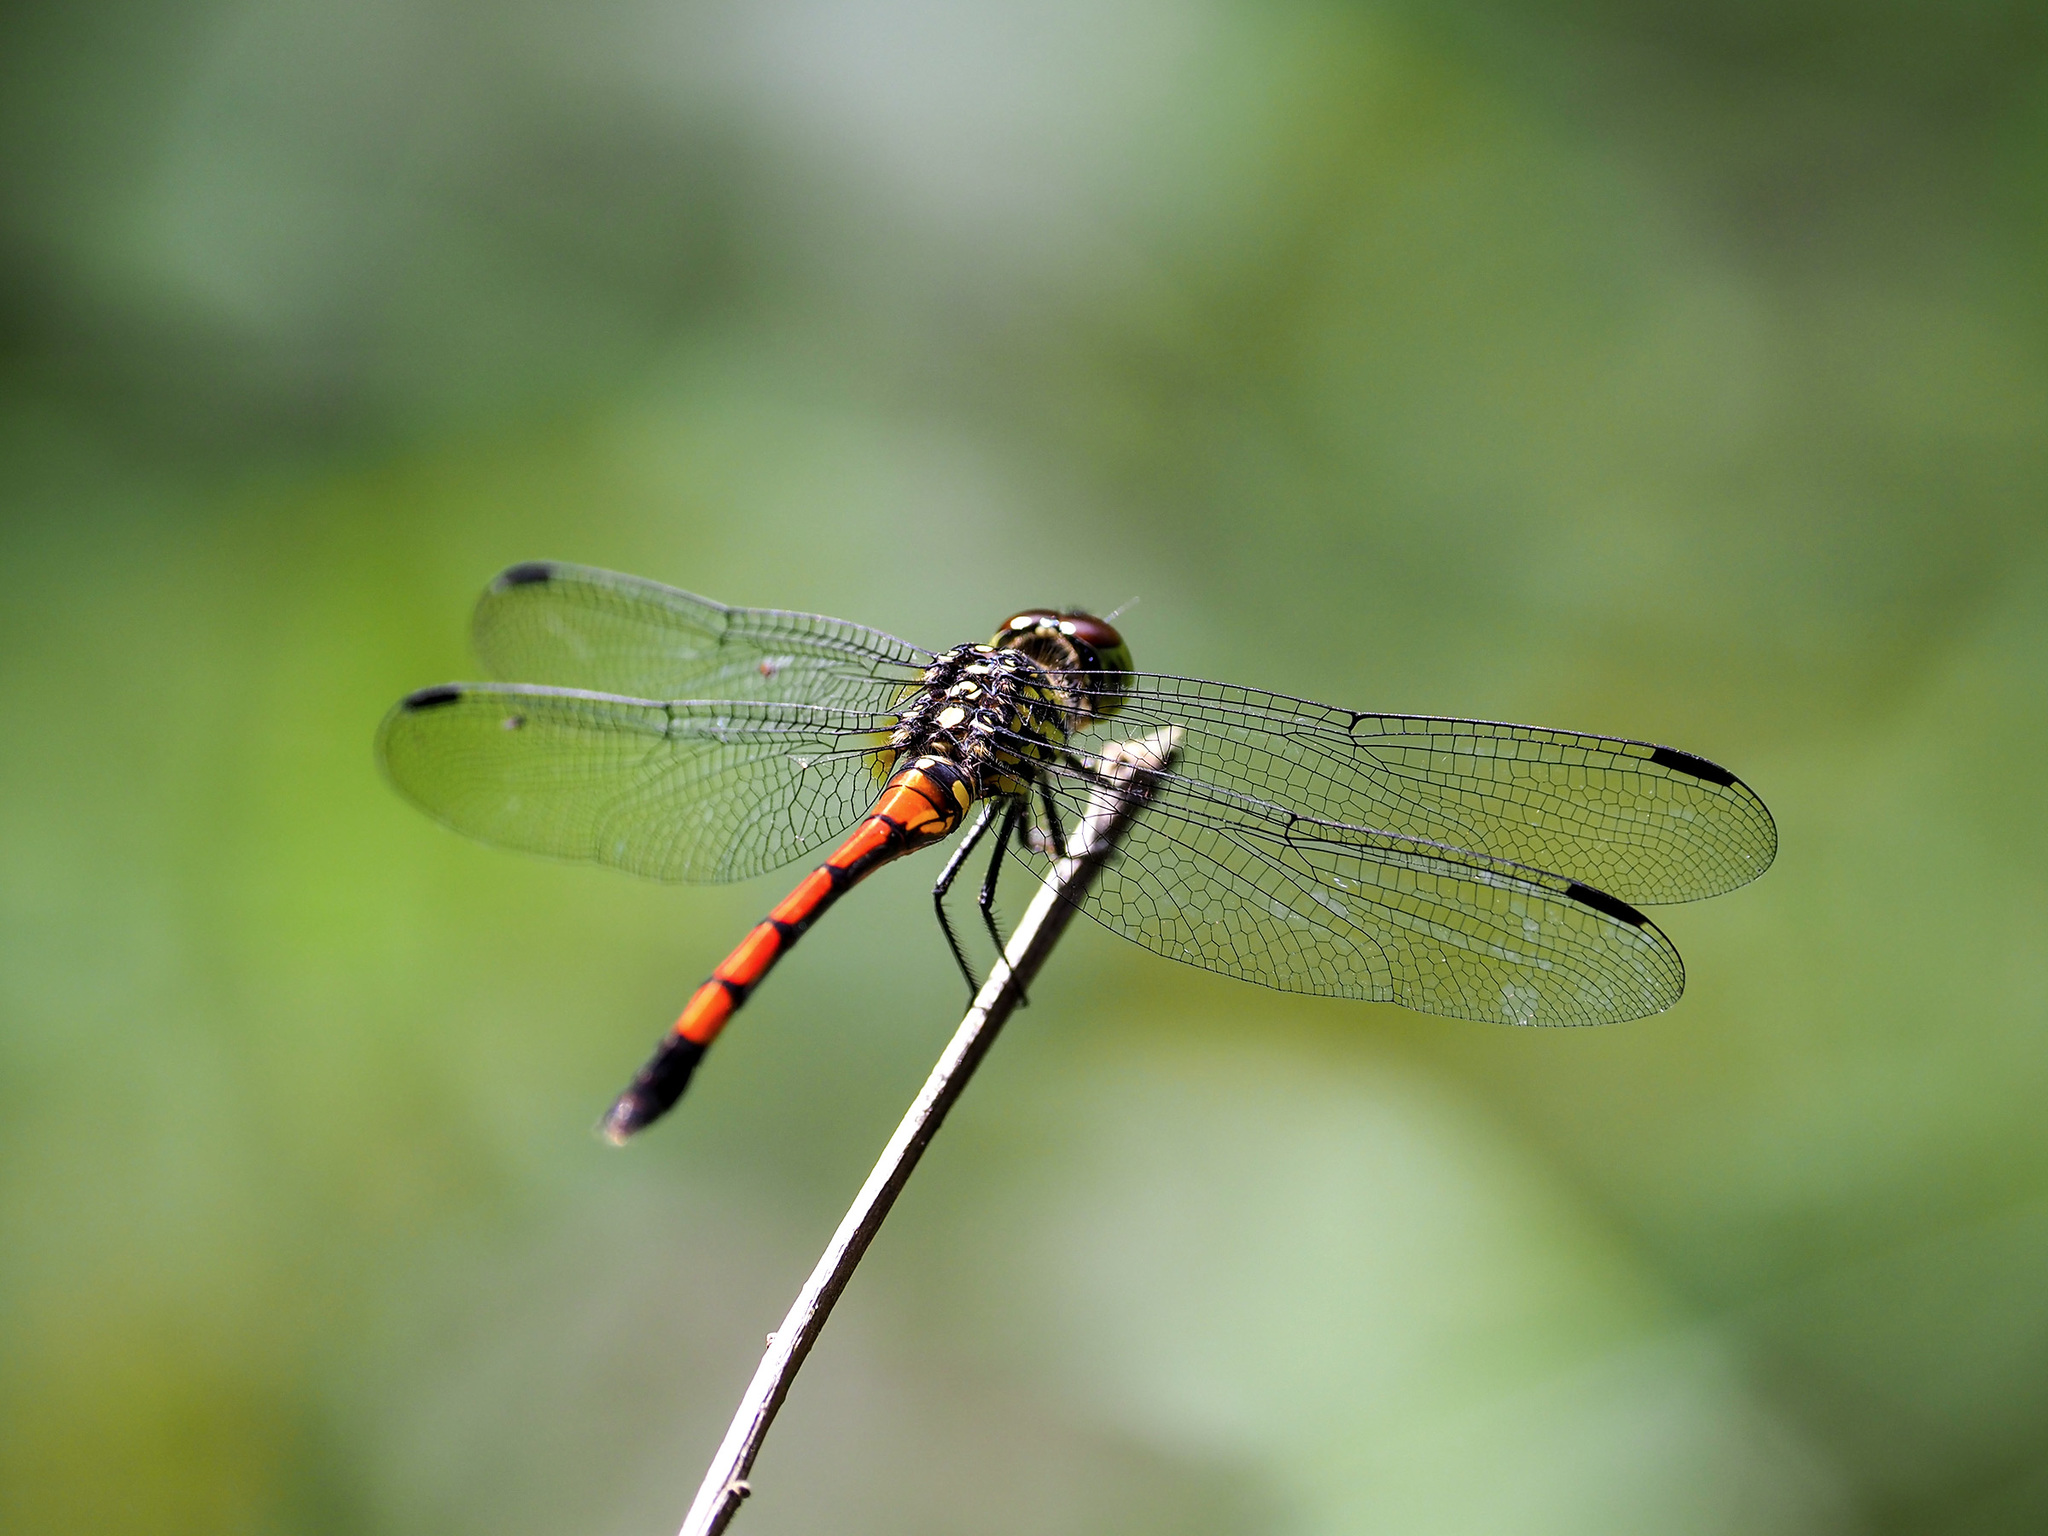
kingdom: Animalia
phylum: Arthropoda
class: Insecta
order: Odonata
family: Libellulidae
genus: Agrionoptera
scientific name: Agrionoptera insignis
